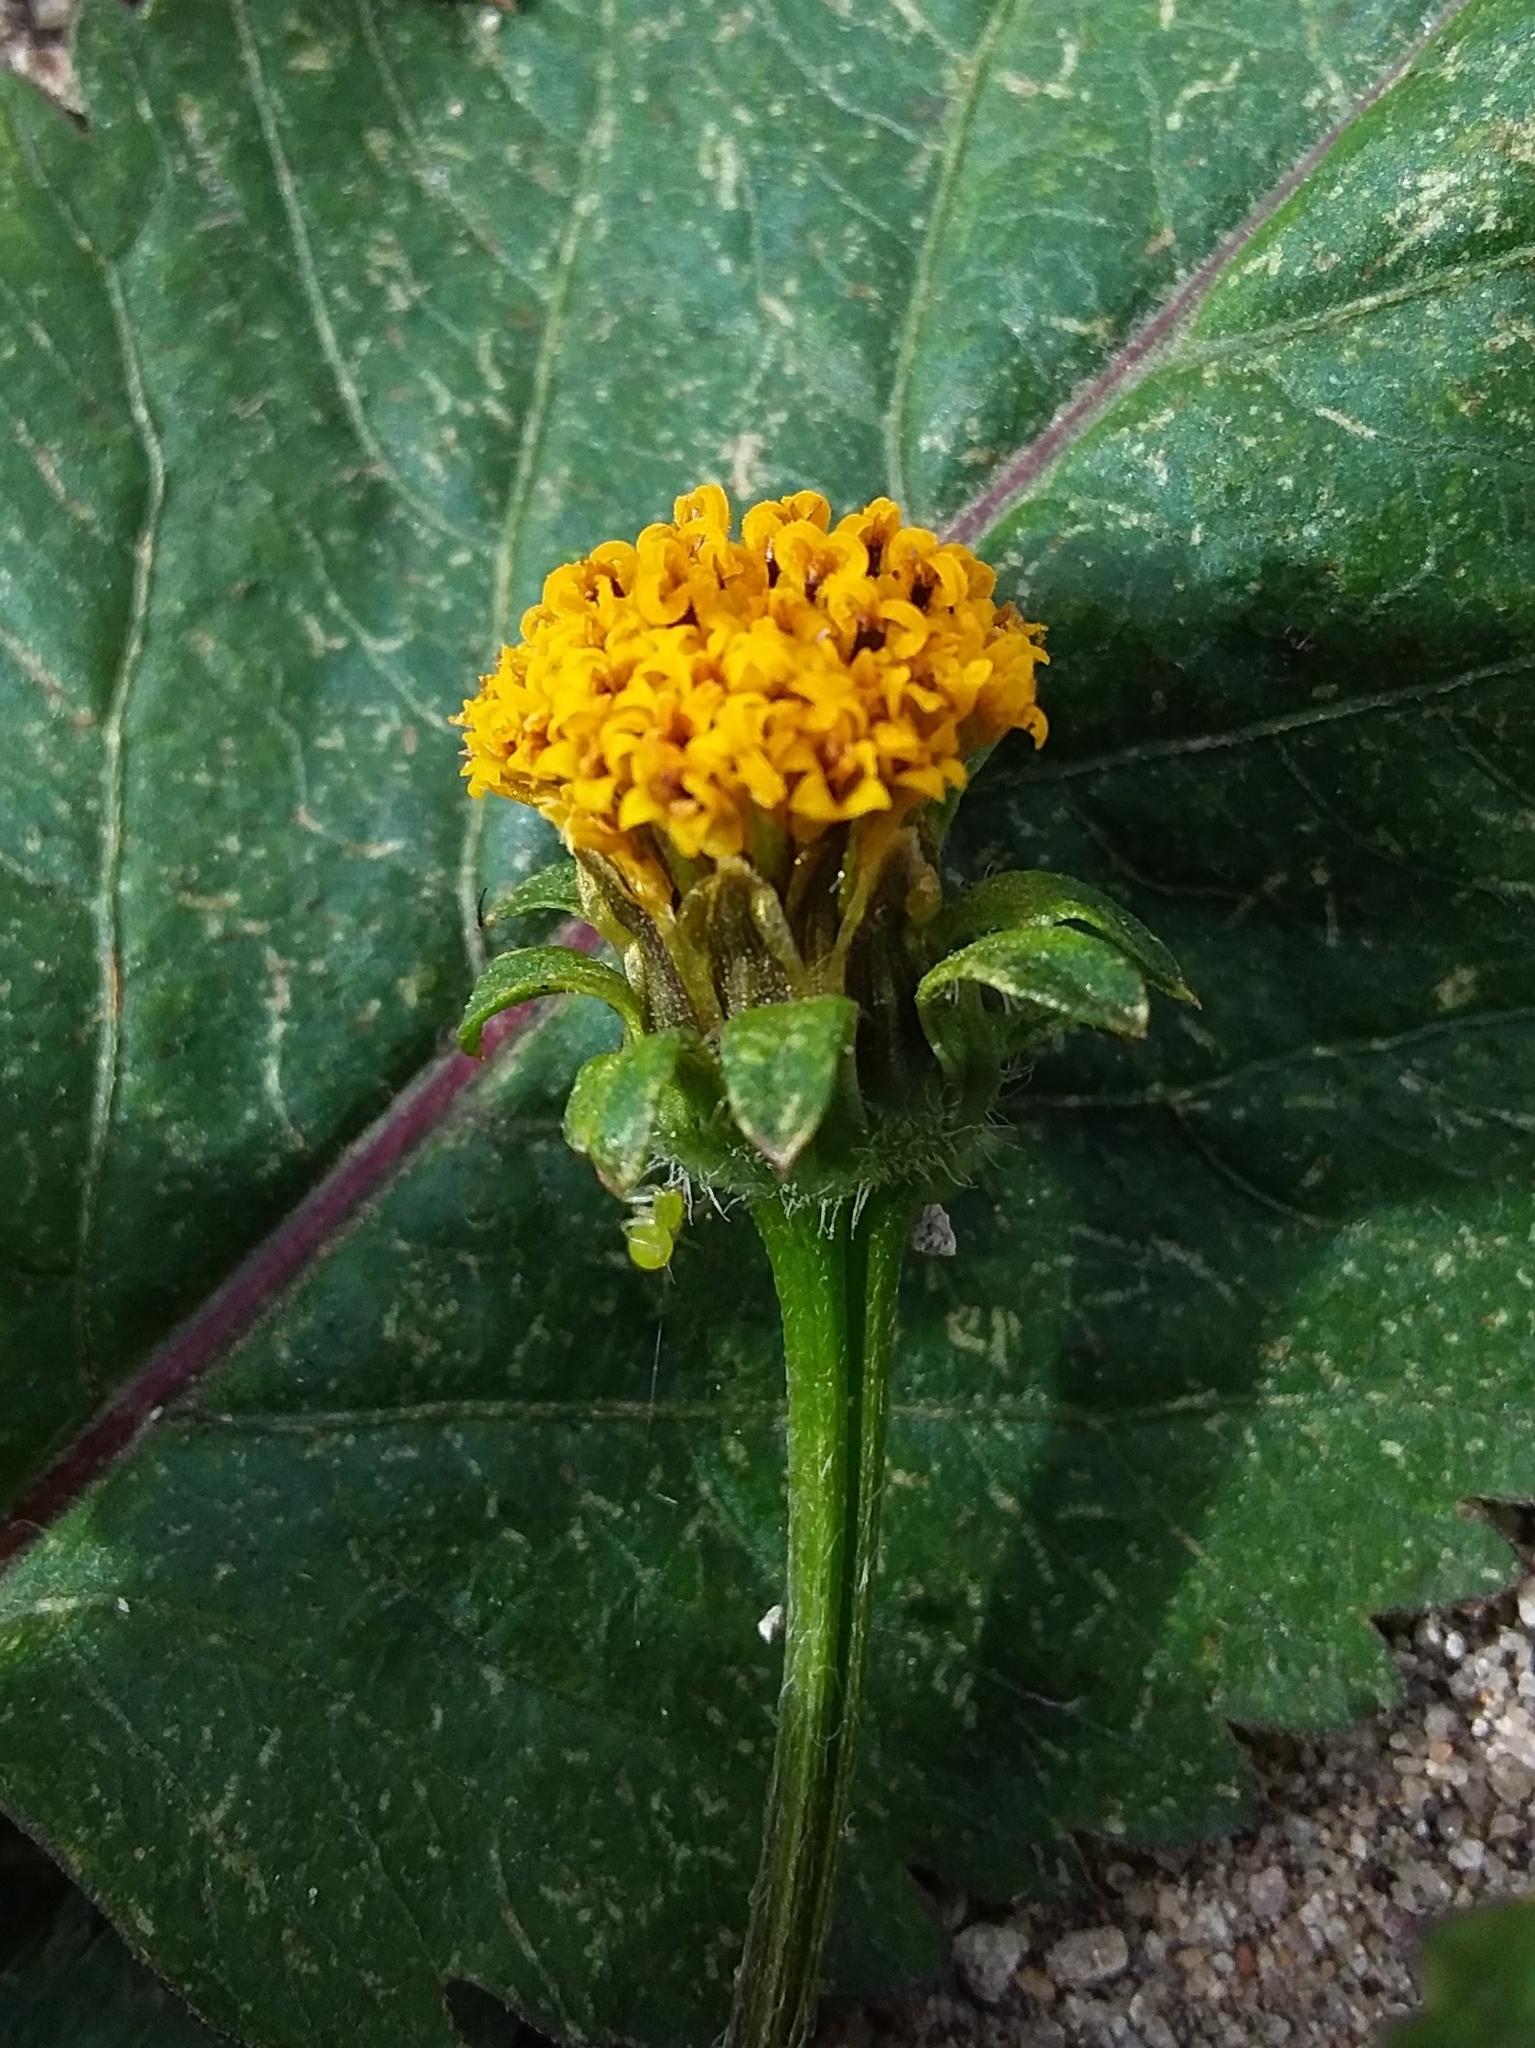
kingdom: Plantae
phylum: Tracheophyta
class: Magnoliopsida
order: Asterales
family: Asteraceae
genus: Bidens
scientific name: Bidens pilosa
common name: Black-jack
